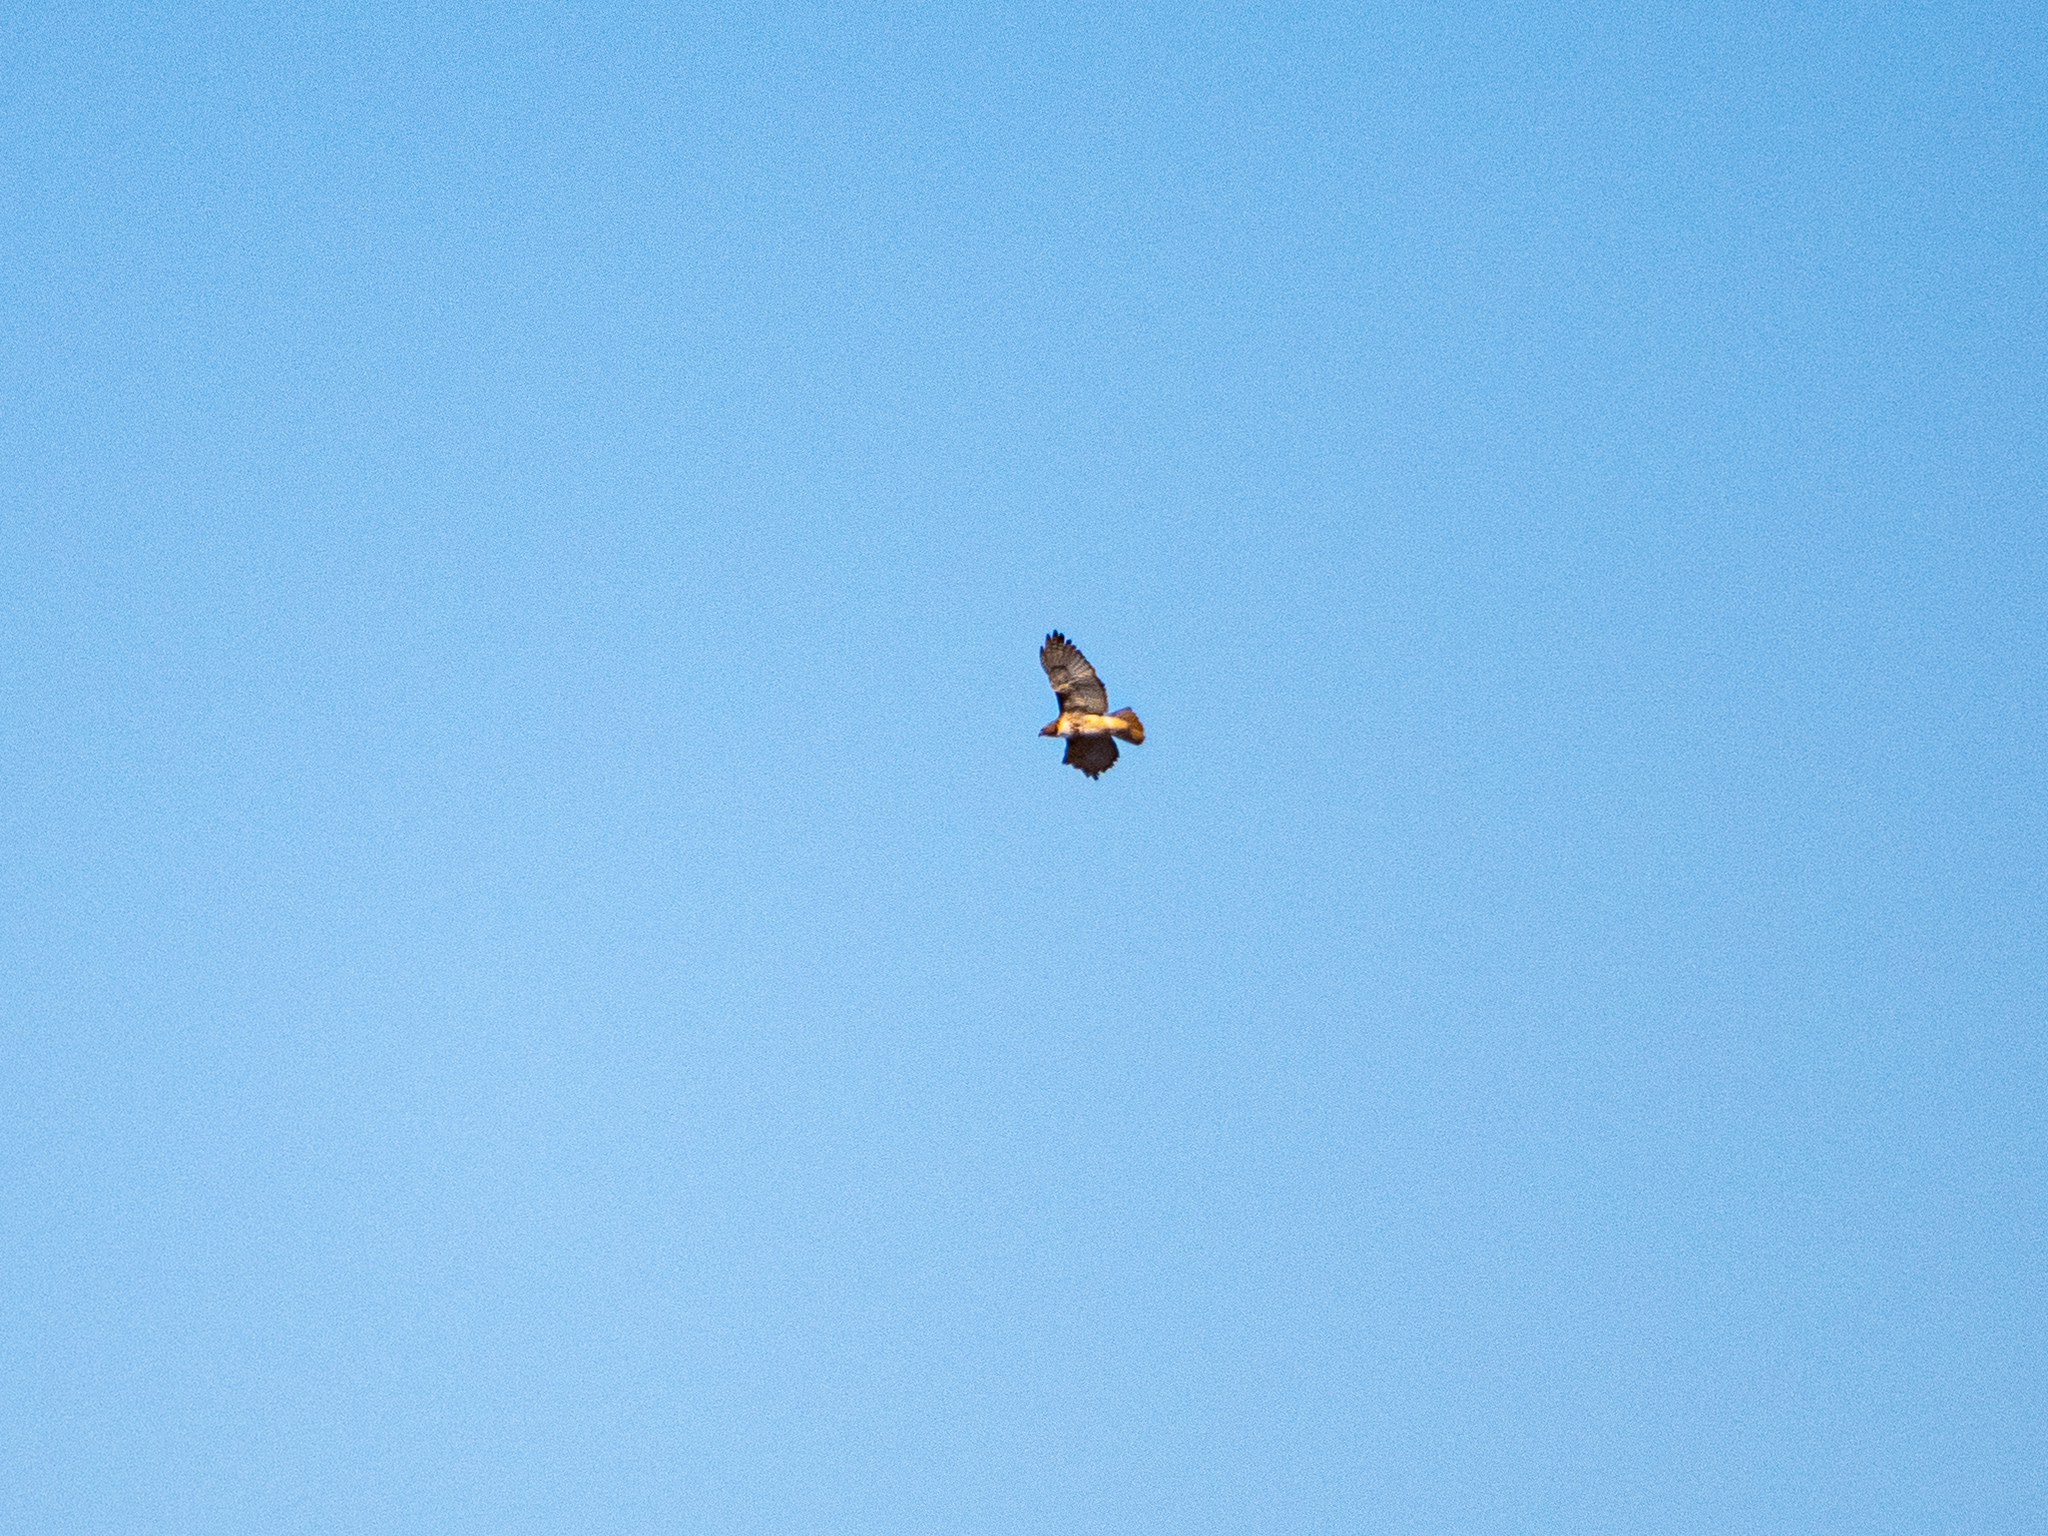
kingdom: Animalia
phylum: Chordata
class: Aves
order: Accipitriformes
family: Accipitridae
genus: Buteo
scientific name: Buteo jamaicensis
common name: Red-tailed hawk
